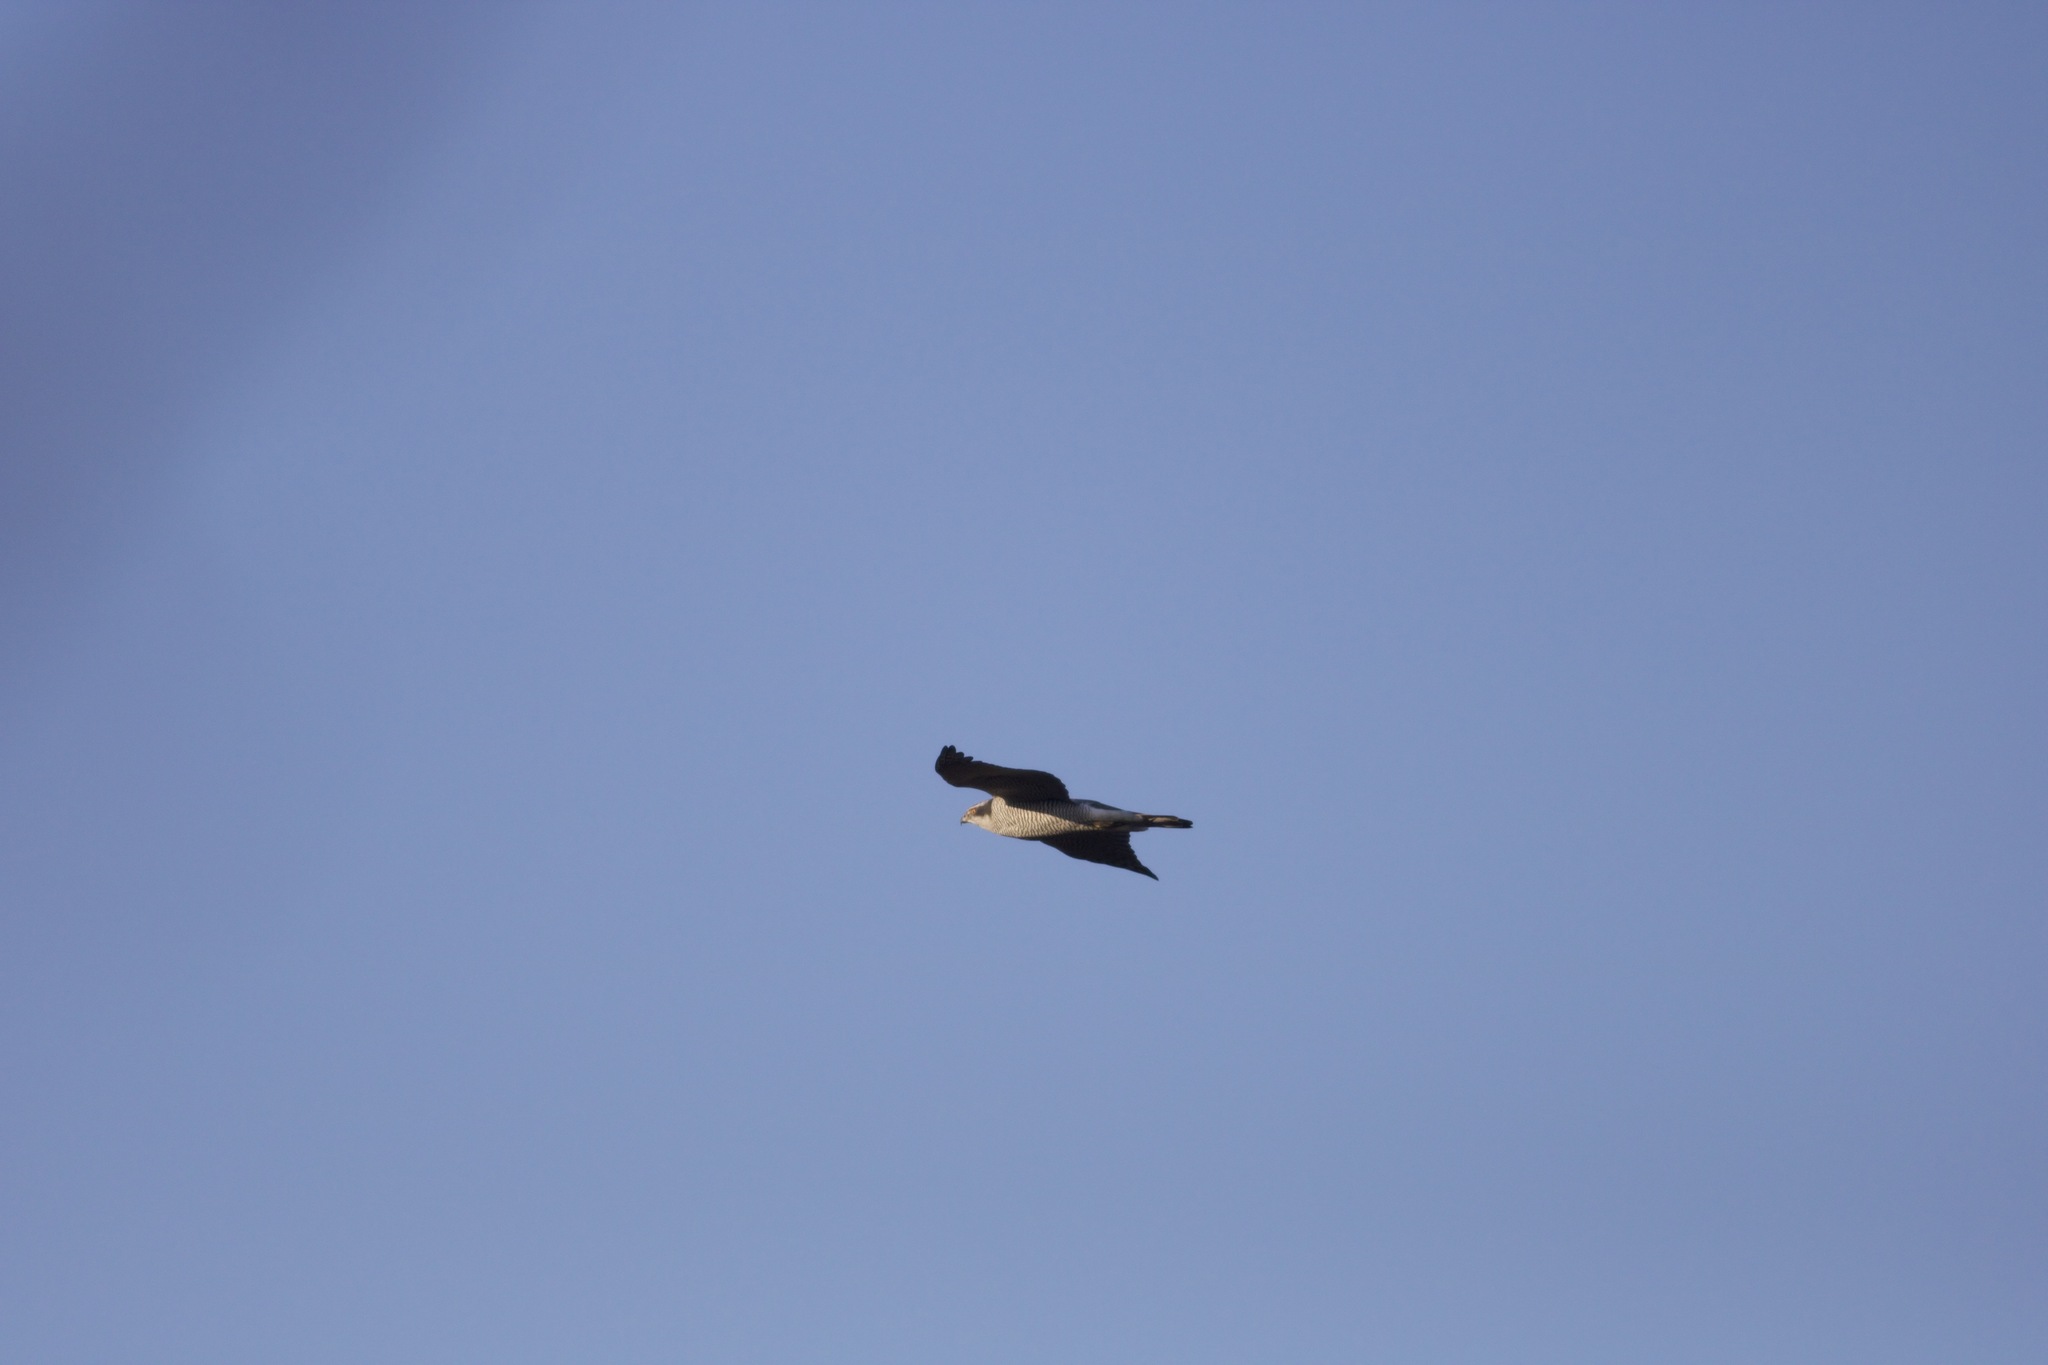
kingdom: Animalia
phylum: Chordata
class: Aves
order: Accipitriformes
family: Accipitridae
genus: Accipiter
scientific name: Accipiter gentilis
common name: Northern goshawk
